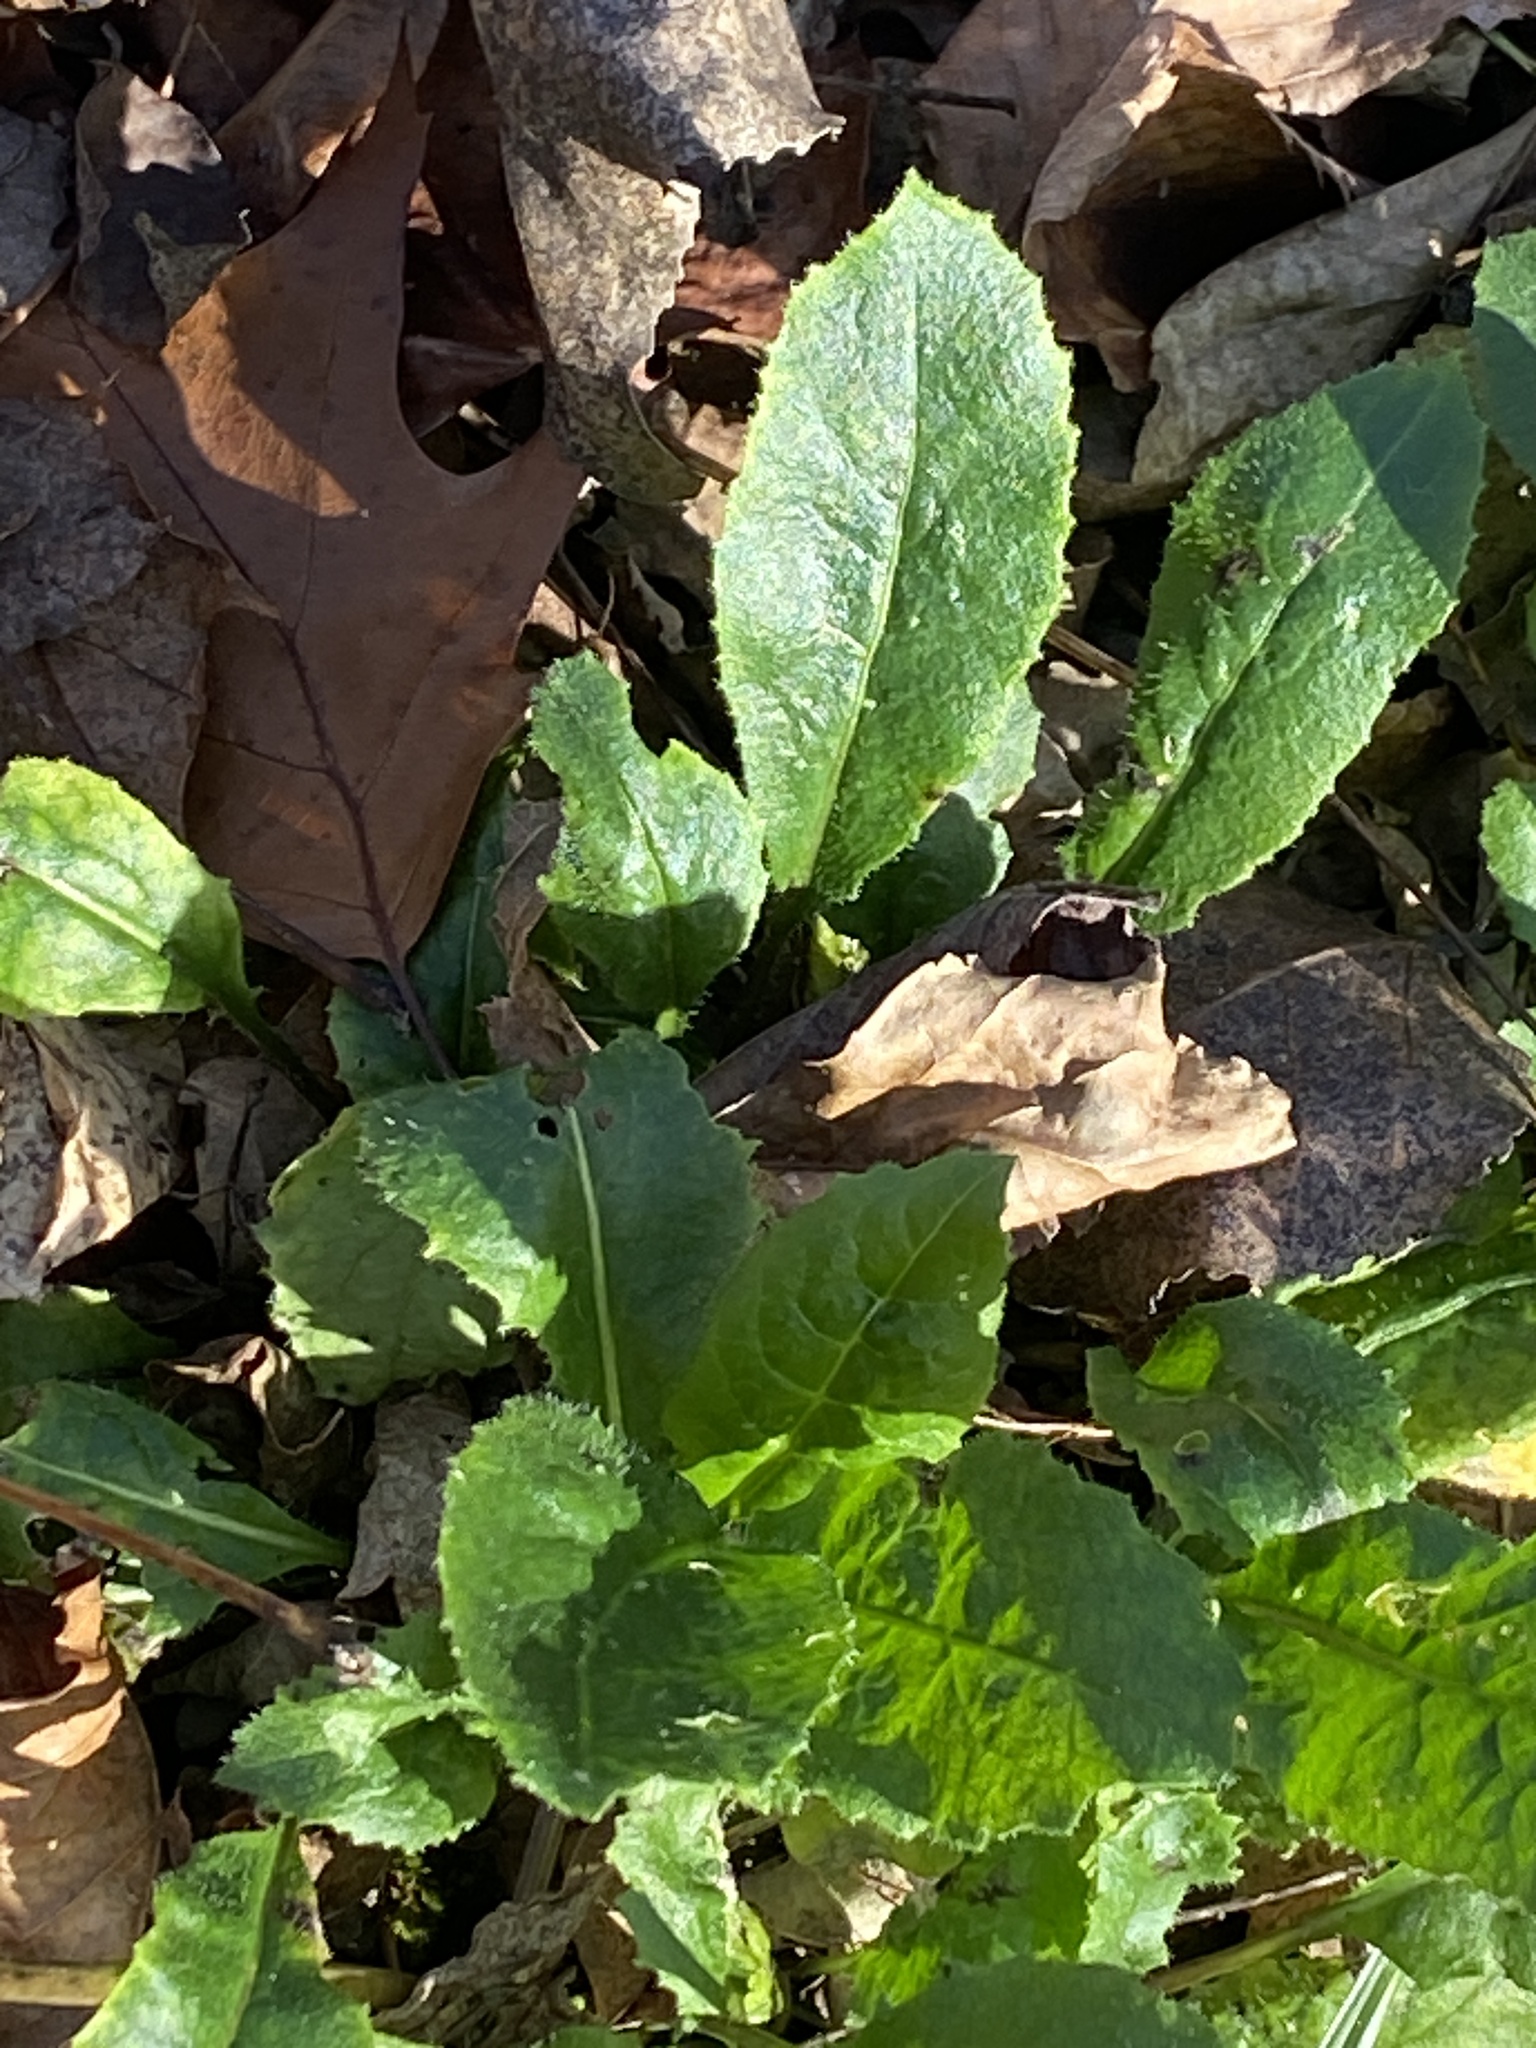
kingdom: Plantae
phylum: Tracheophyta
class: Magnoliopsida
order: Brassicales
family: Brassicaceae
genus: Hesperis
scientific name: Hesperis matronalis
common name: Dame's-violet
